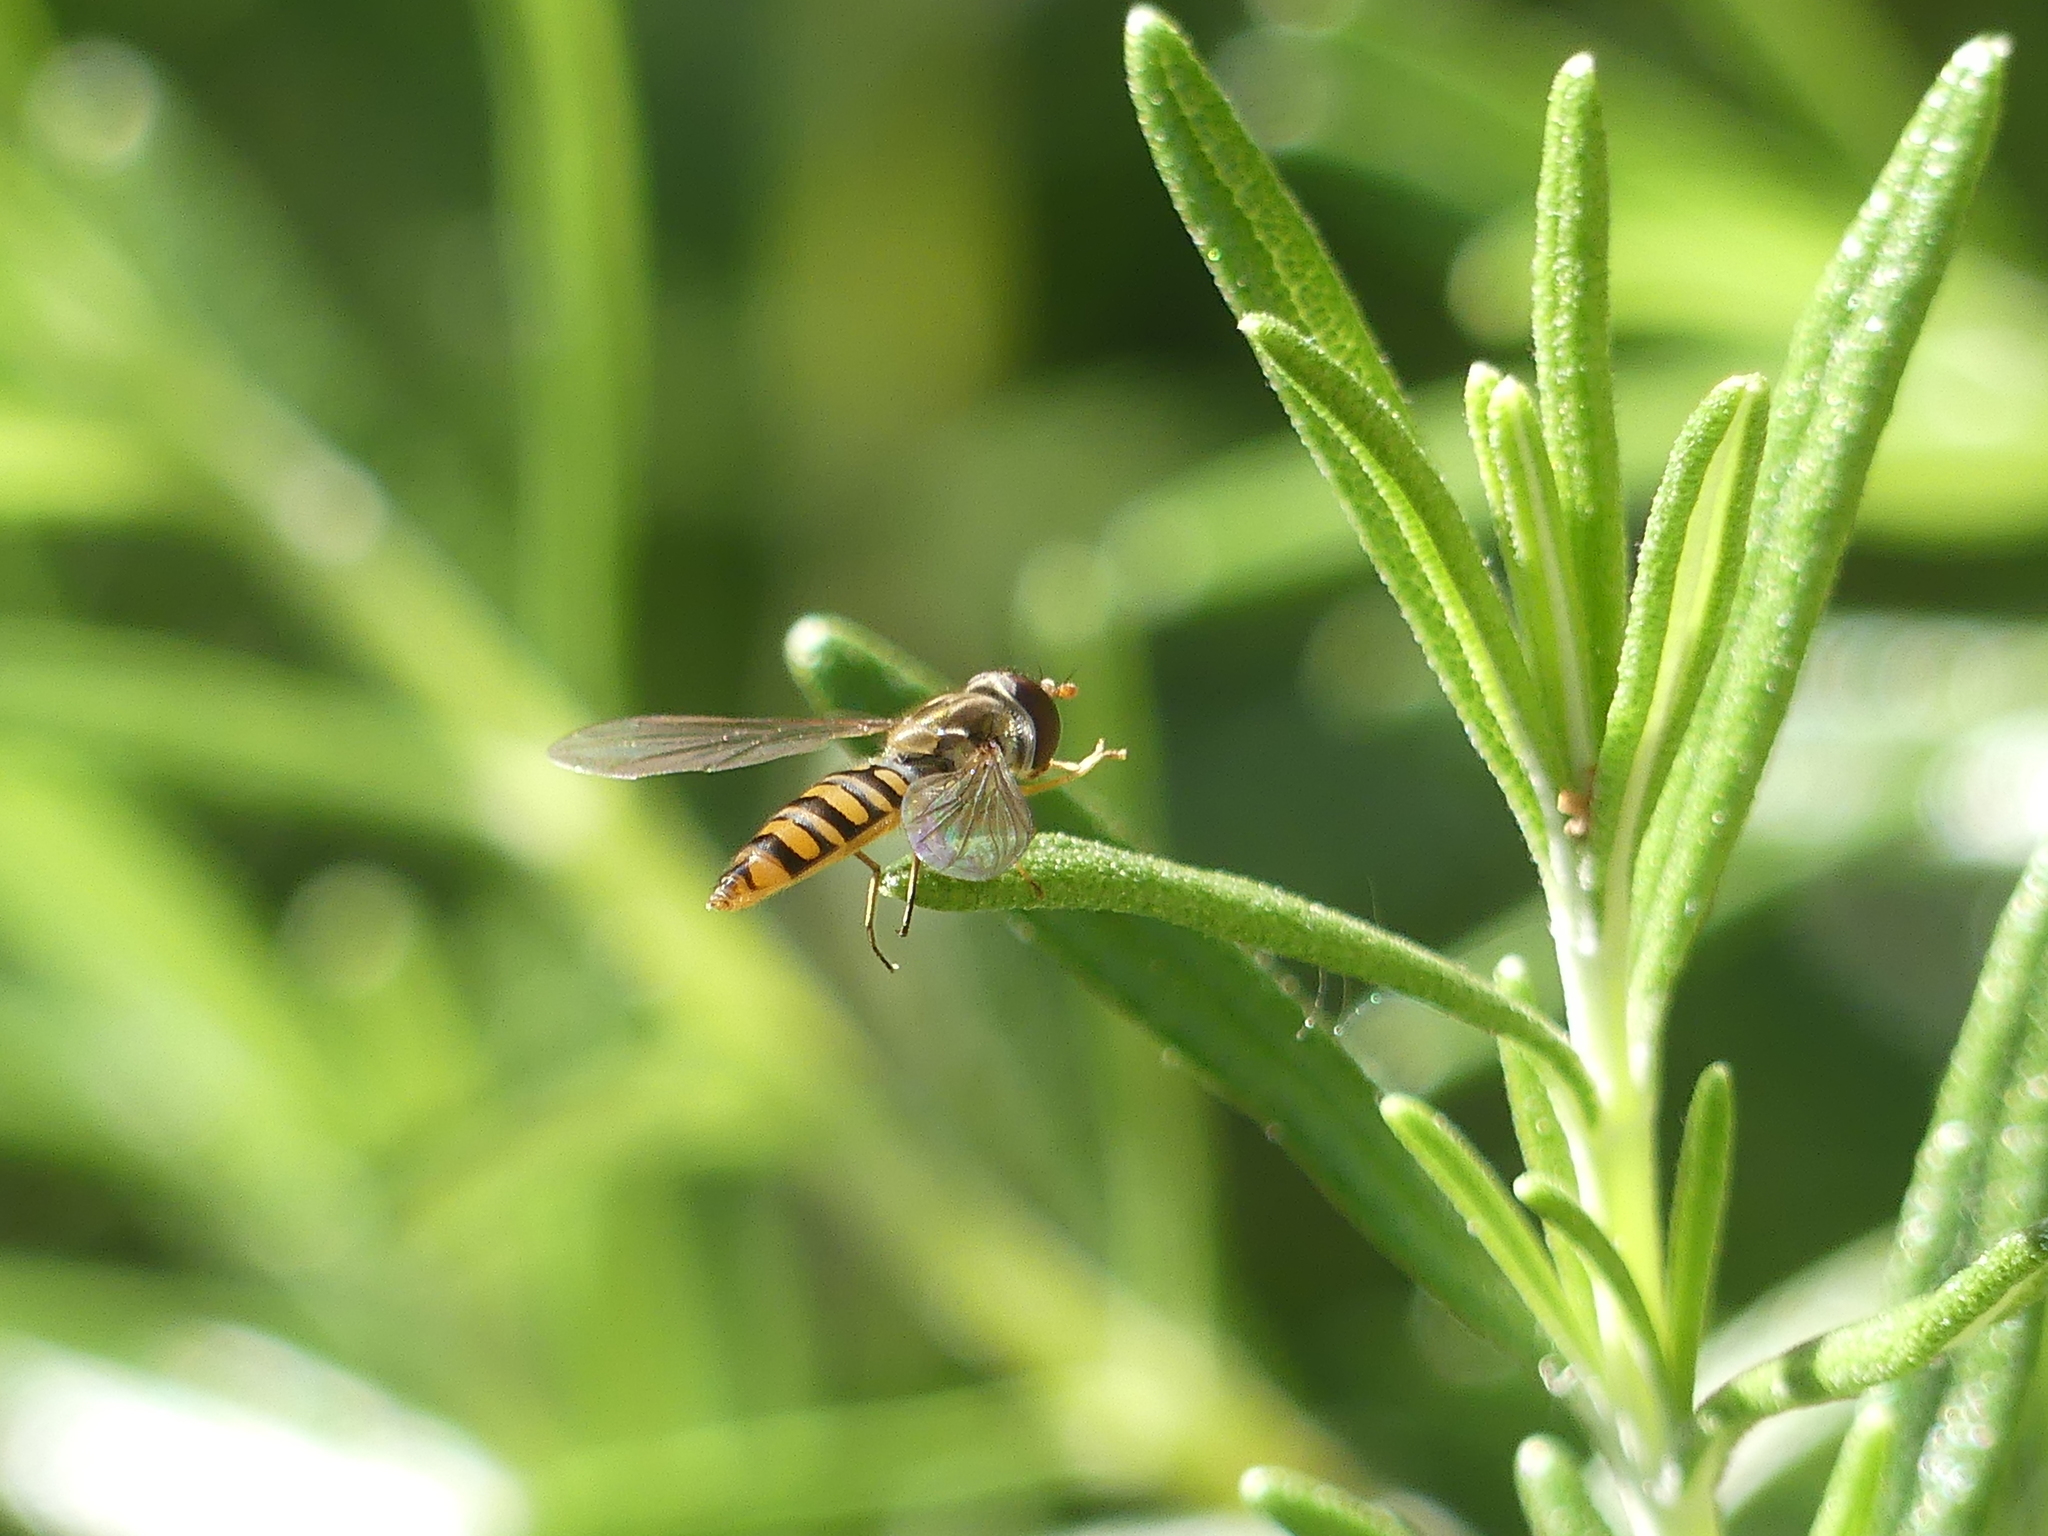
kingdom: Animalia
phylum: Arthropoda
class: Insecta
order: Diptera
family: Syrphidae
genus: Episyrphus
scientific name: Episyrphus balteatus
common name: Marmalade hoverfly
